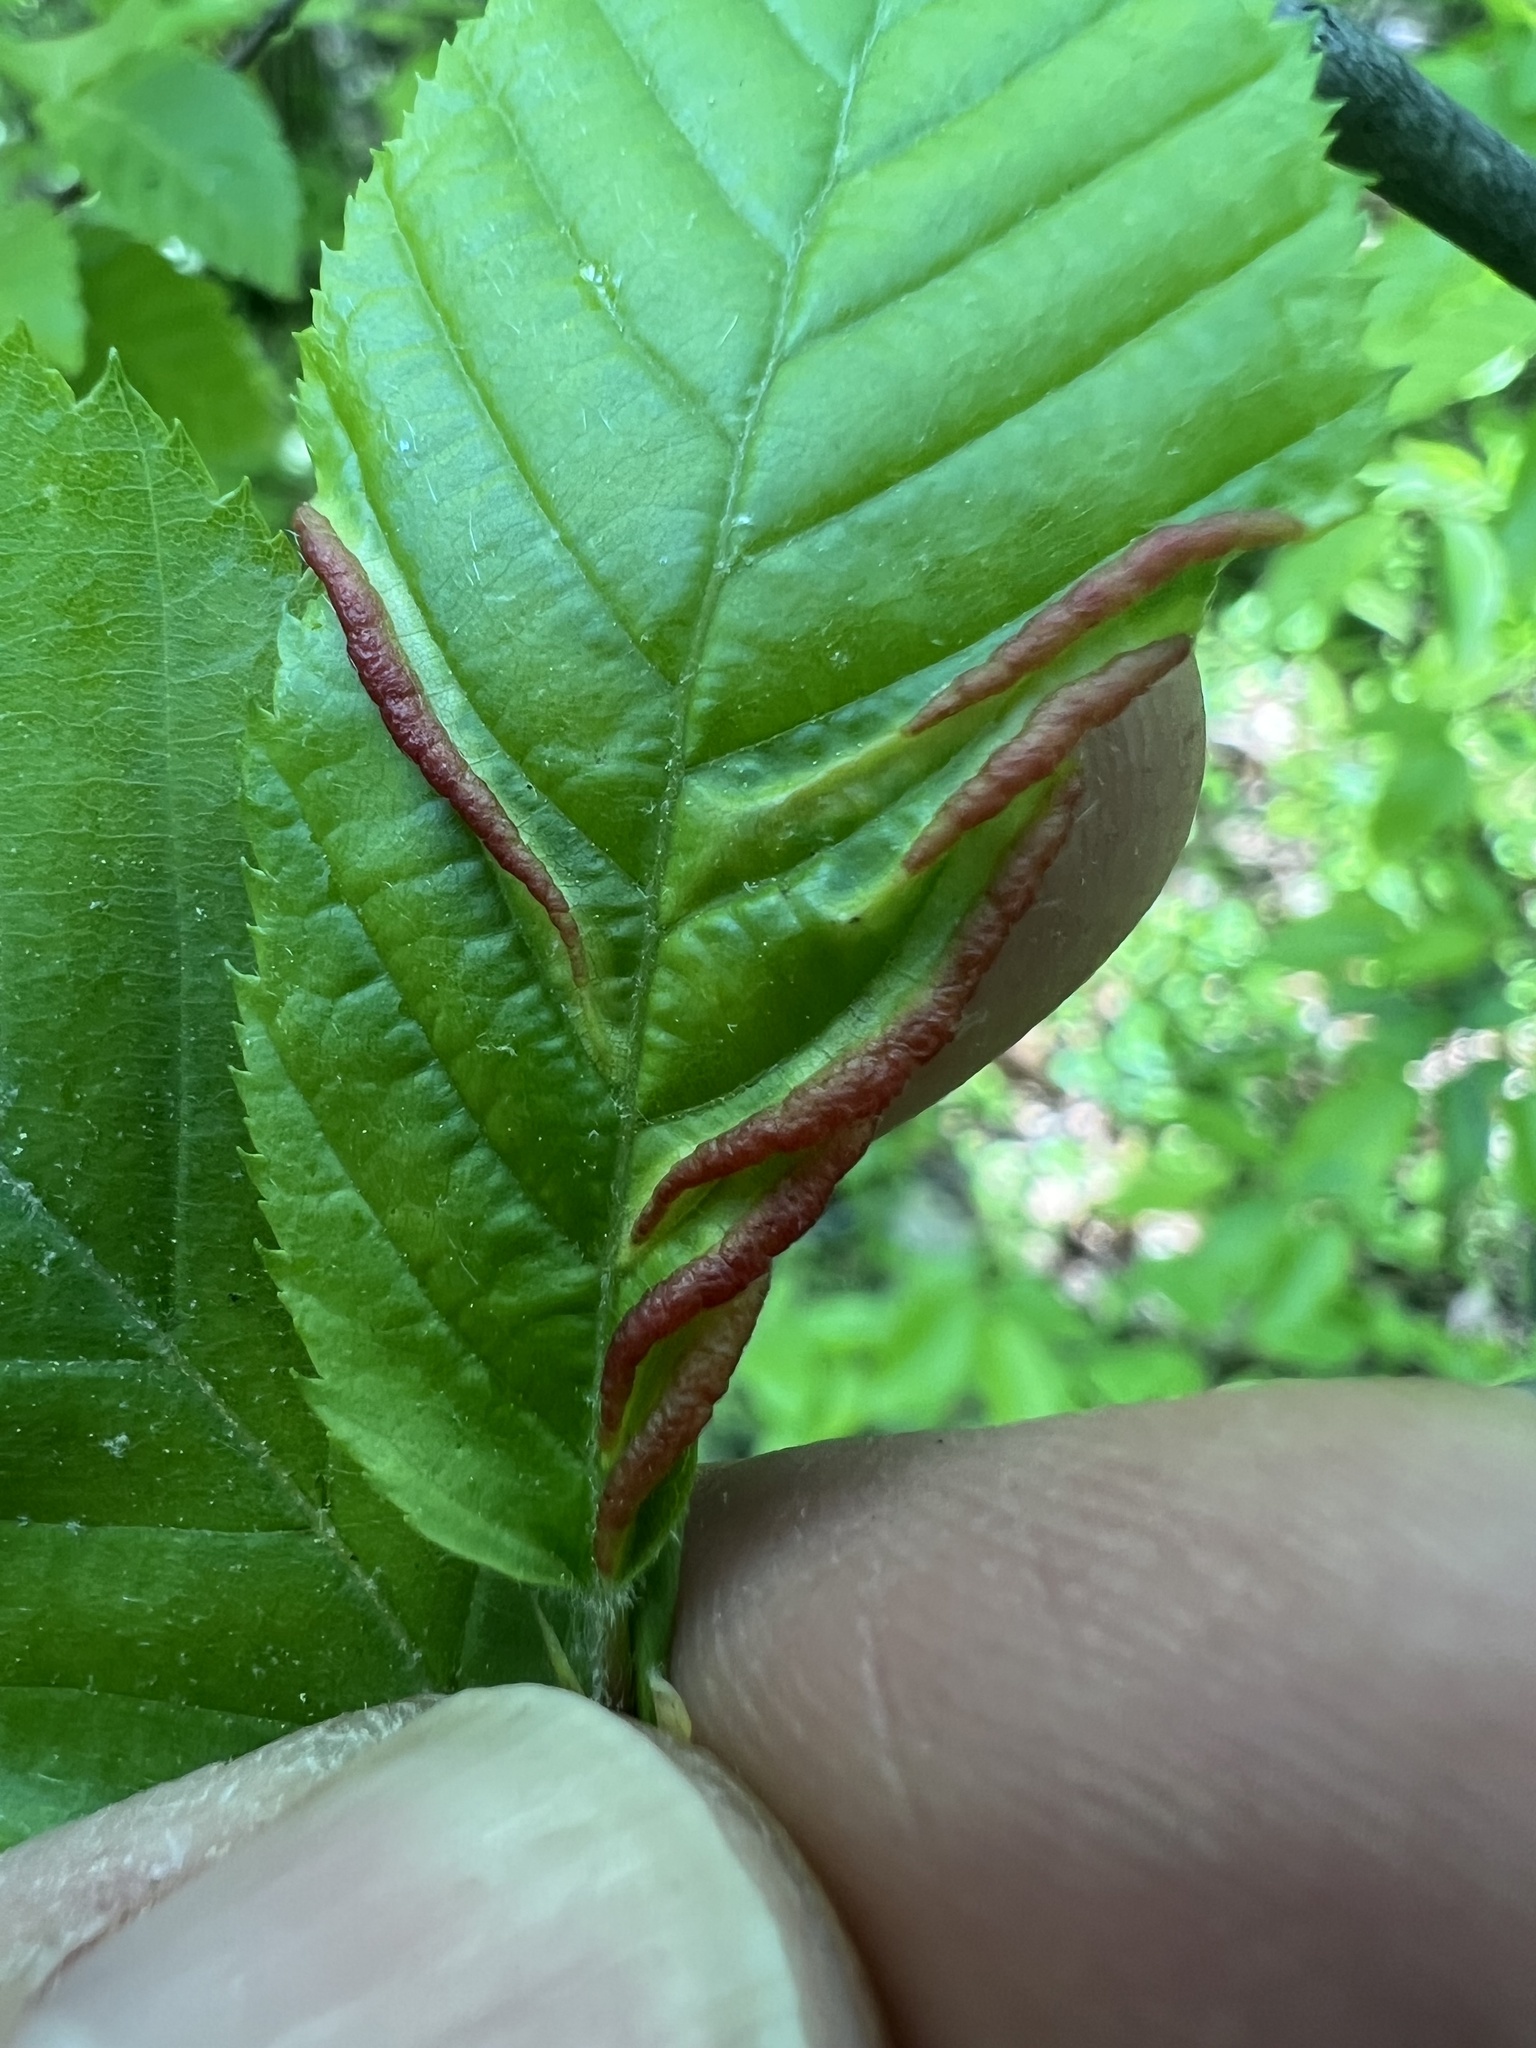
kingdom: Animalia
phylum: Arthropoda
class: Insecta
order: Diptera
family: Cecidomyiidae
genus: Dasineura
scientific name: Dasineura pudibunda
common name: Hornbeam leaf gall midge
